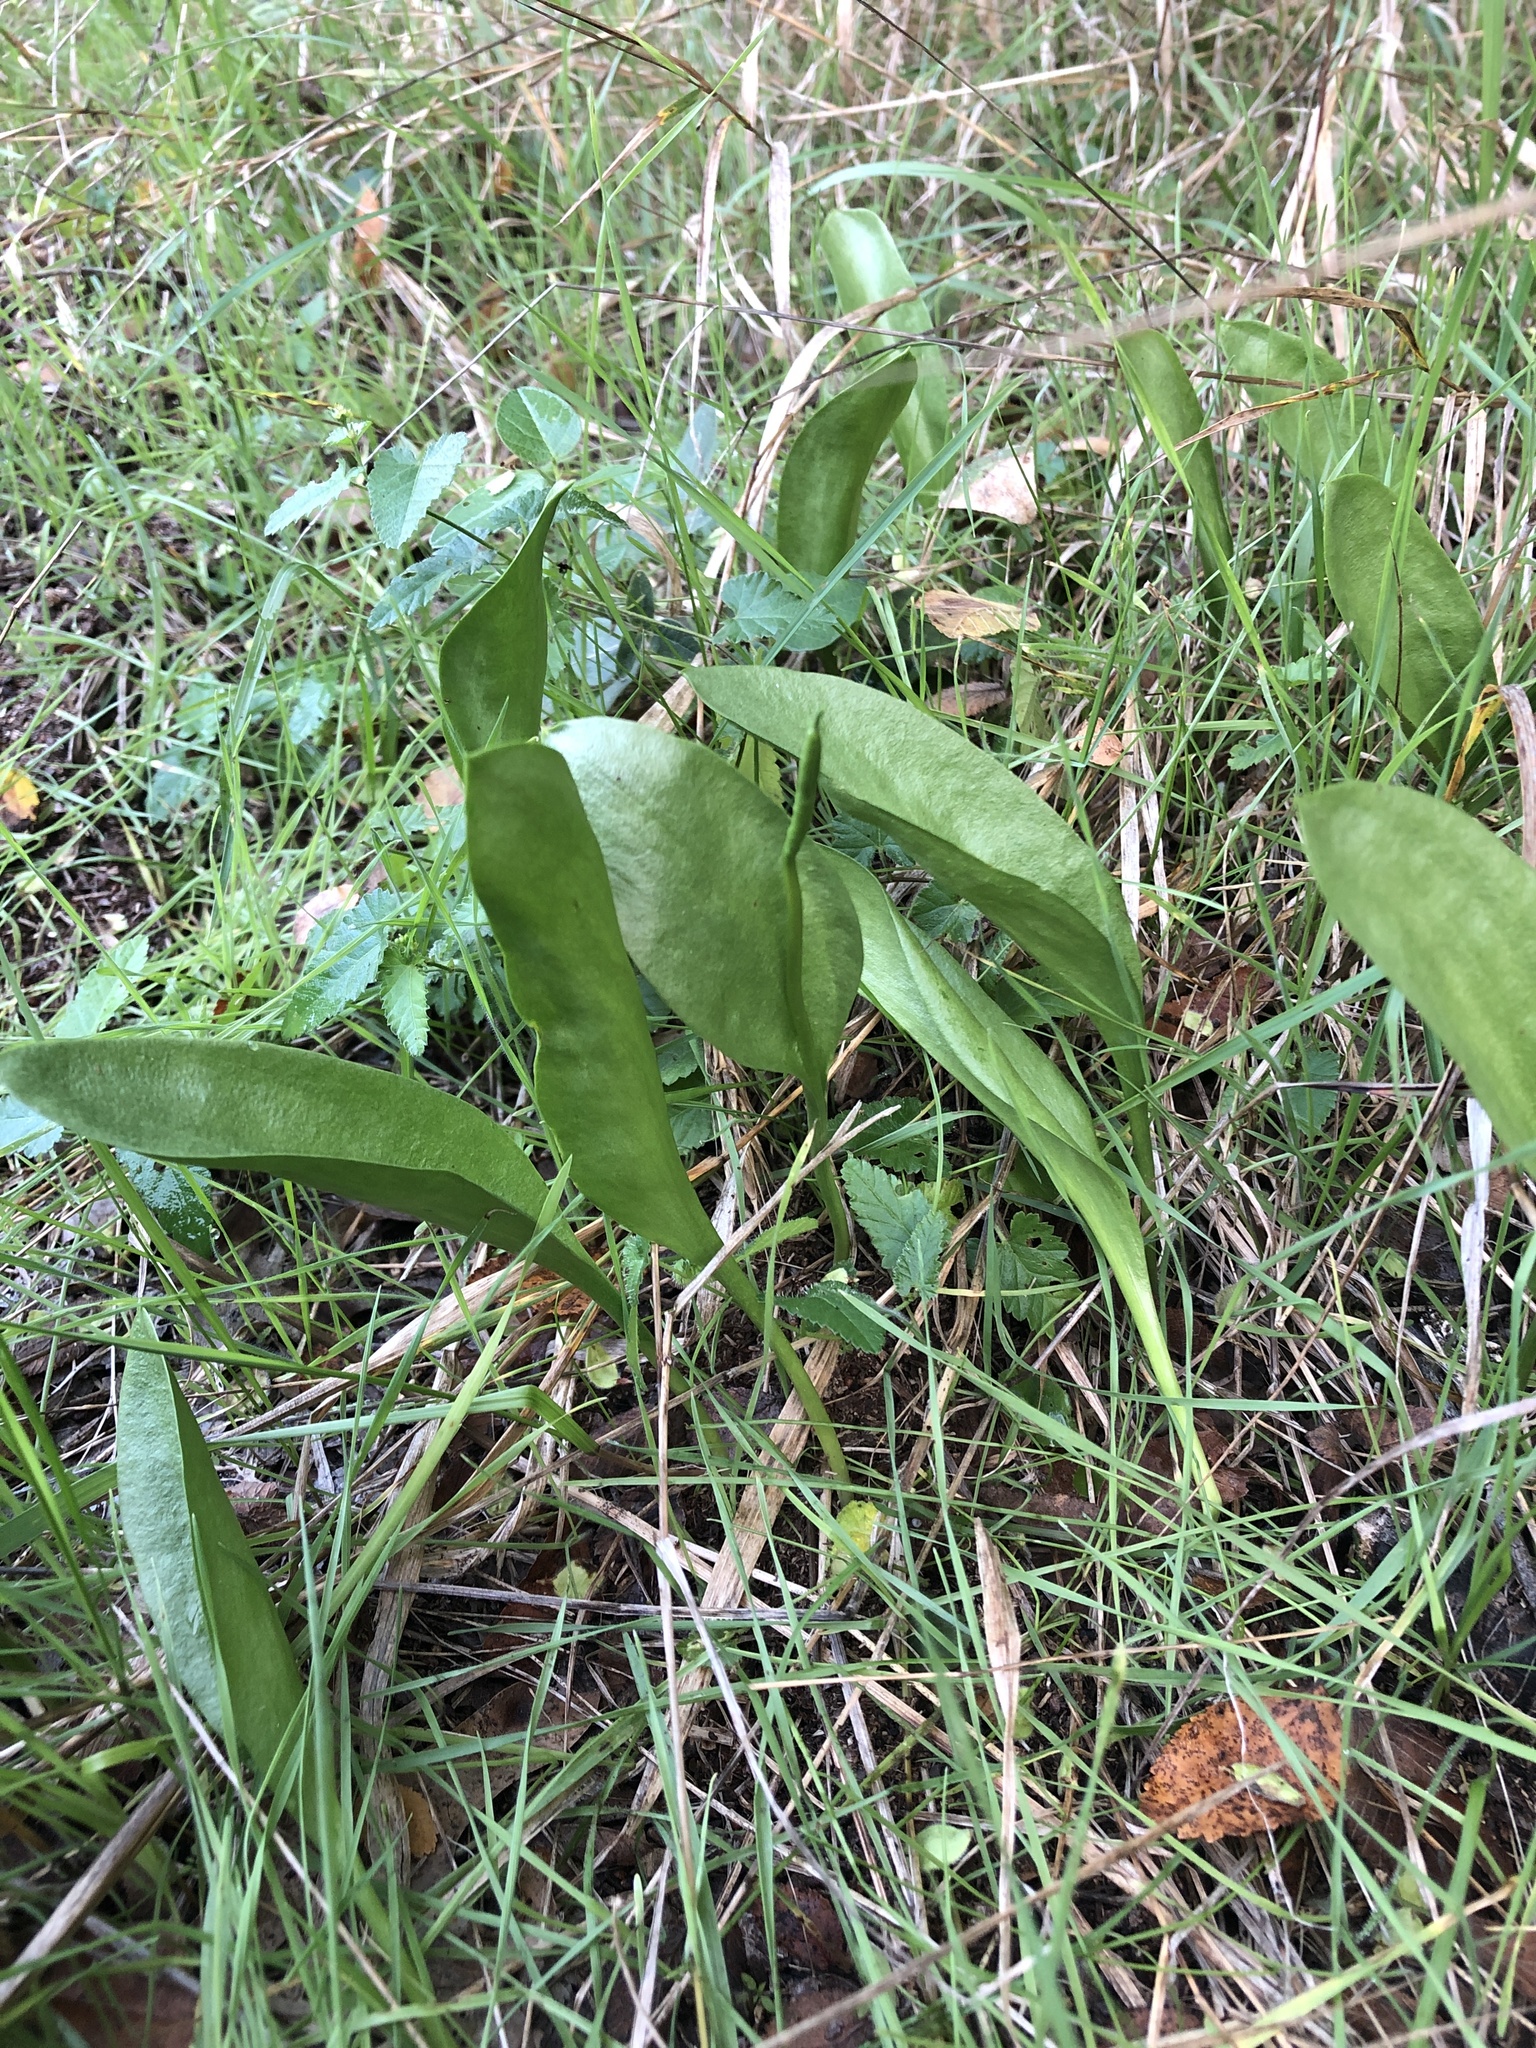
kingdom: Plantae
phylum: Tracheophyta
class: Polypodiopsida
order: Ophioglossales
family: Ophioglossaceae
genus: Ophioglossum
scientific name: Ophioglossum engelmannii
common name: Limestone adder's-tongue
